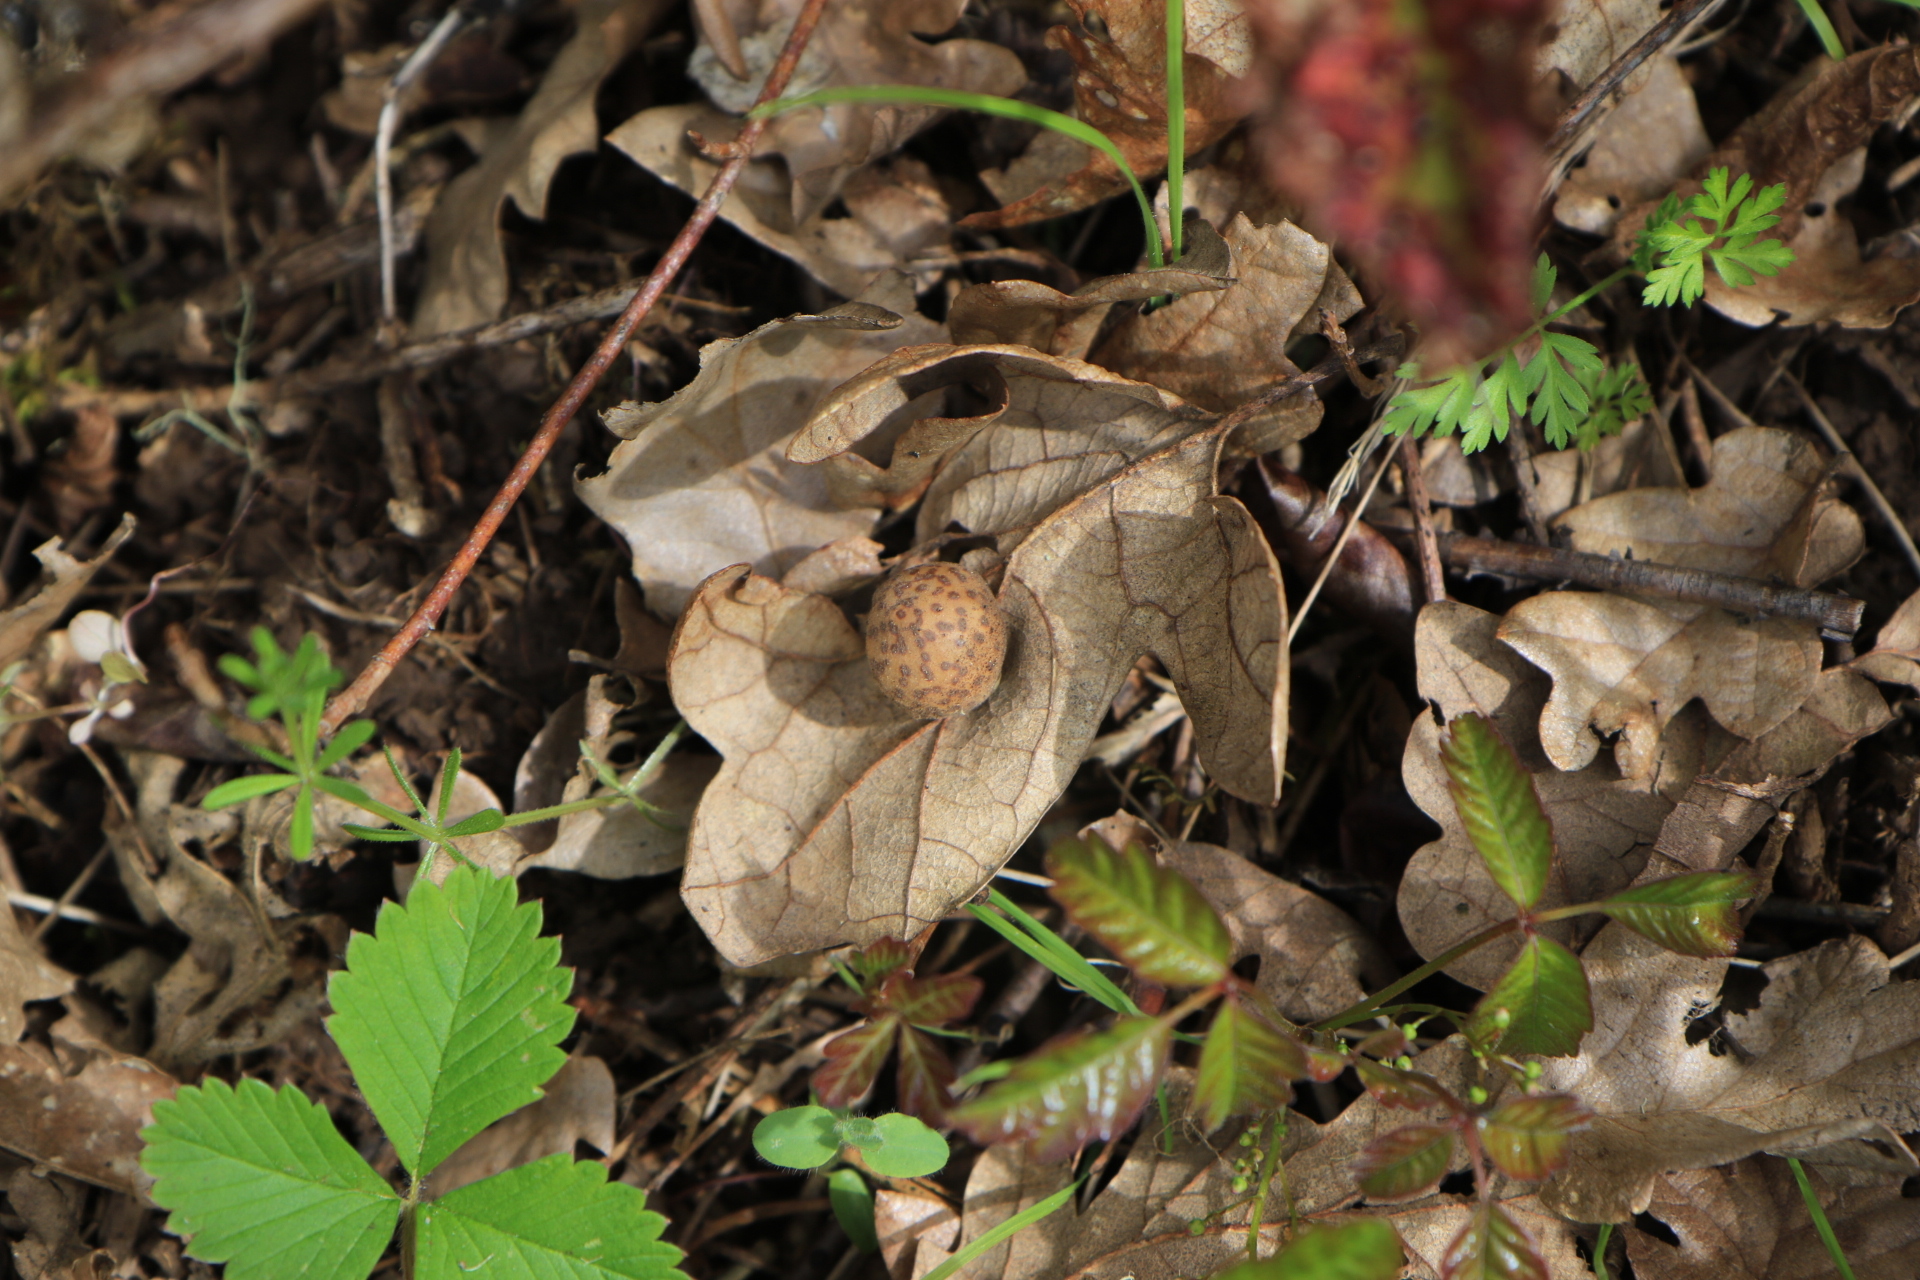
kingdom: Animalia
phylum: Arthropoda
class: Insecta
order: Hymenoptera
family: Cynipidae
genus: Cynips
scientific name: Cynips
